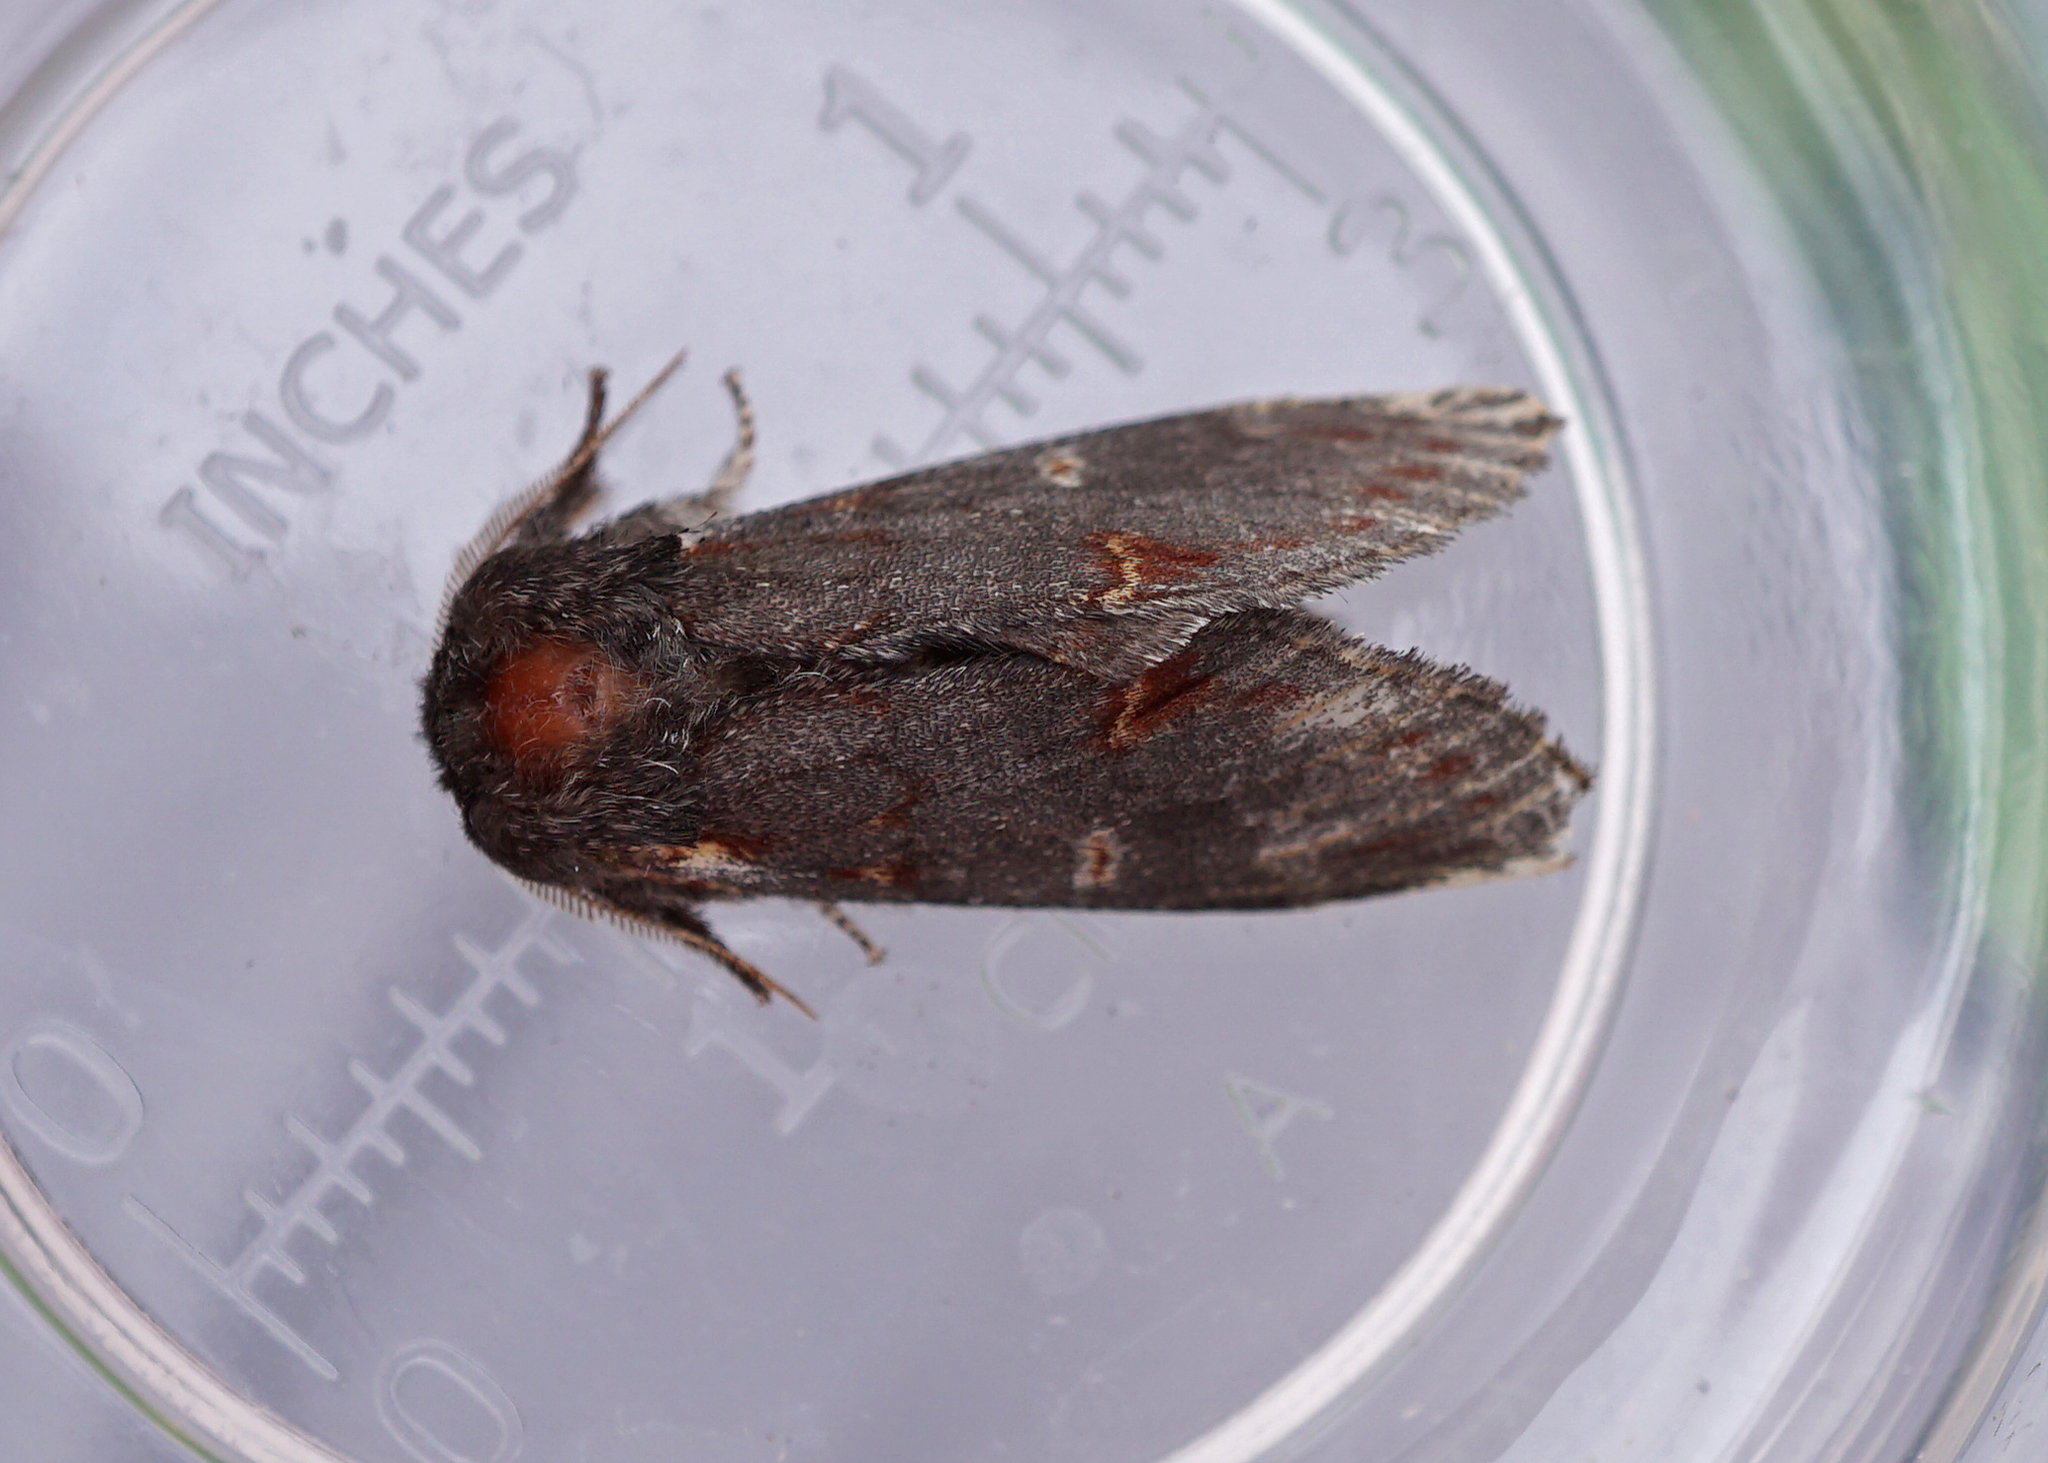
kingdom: Animalia
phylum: Arthropoda
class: Insecta
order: Lepidoptera
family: Notodontidae
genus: Notodonta
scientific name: Notodonta dromedarius
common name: Iron prominent
